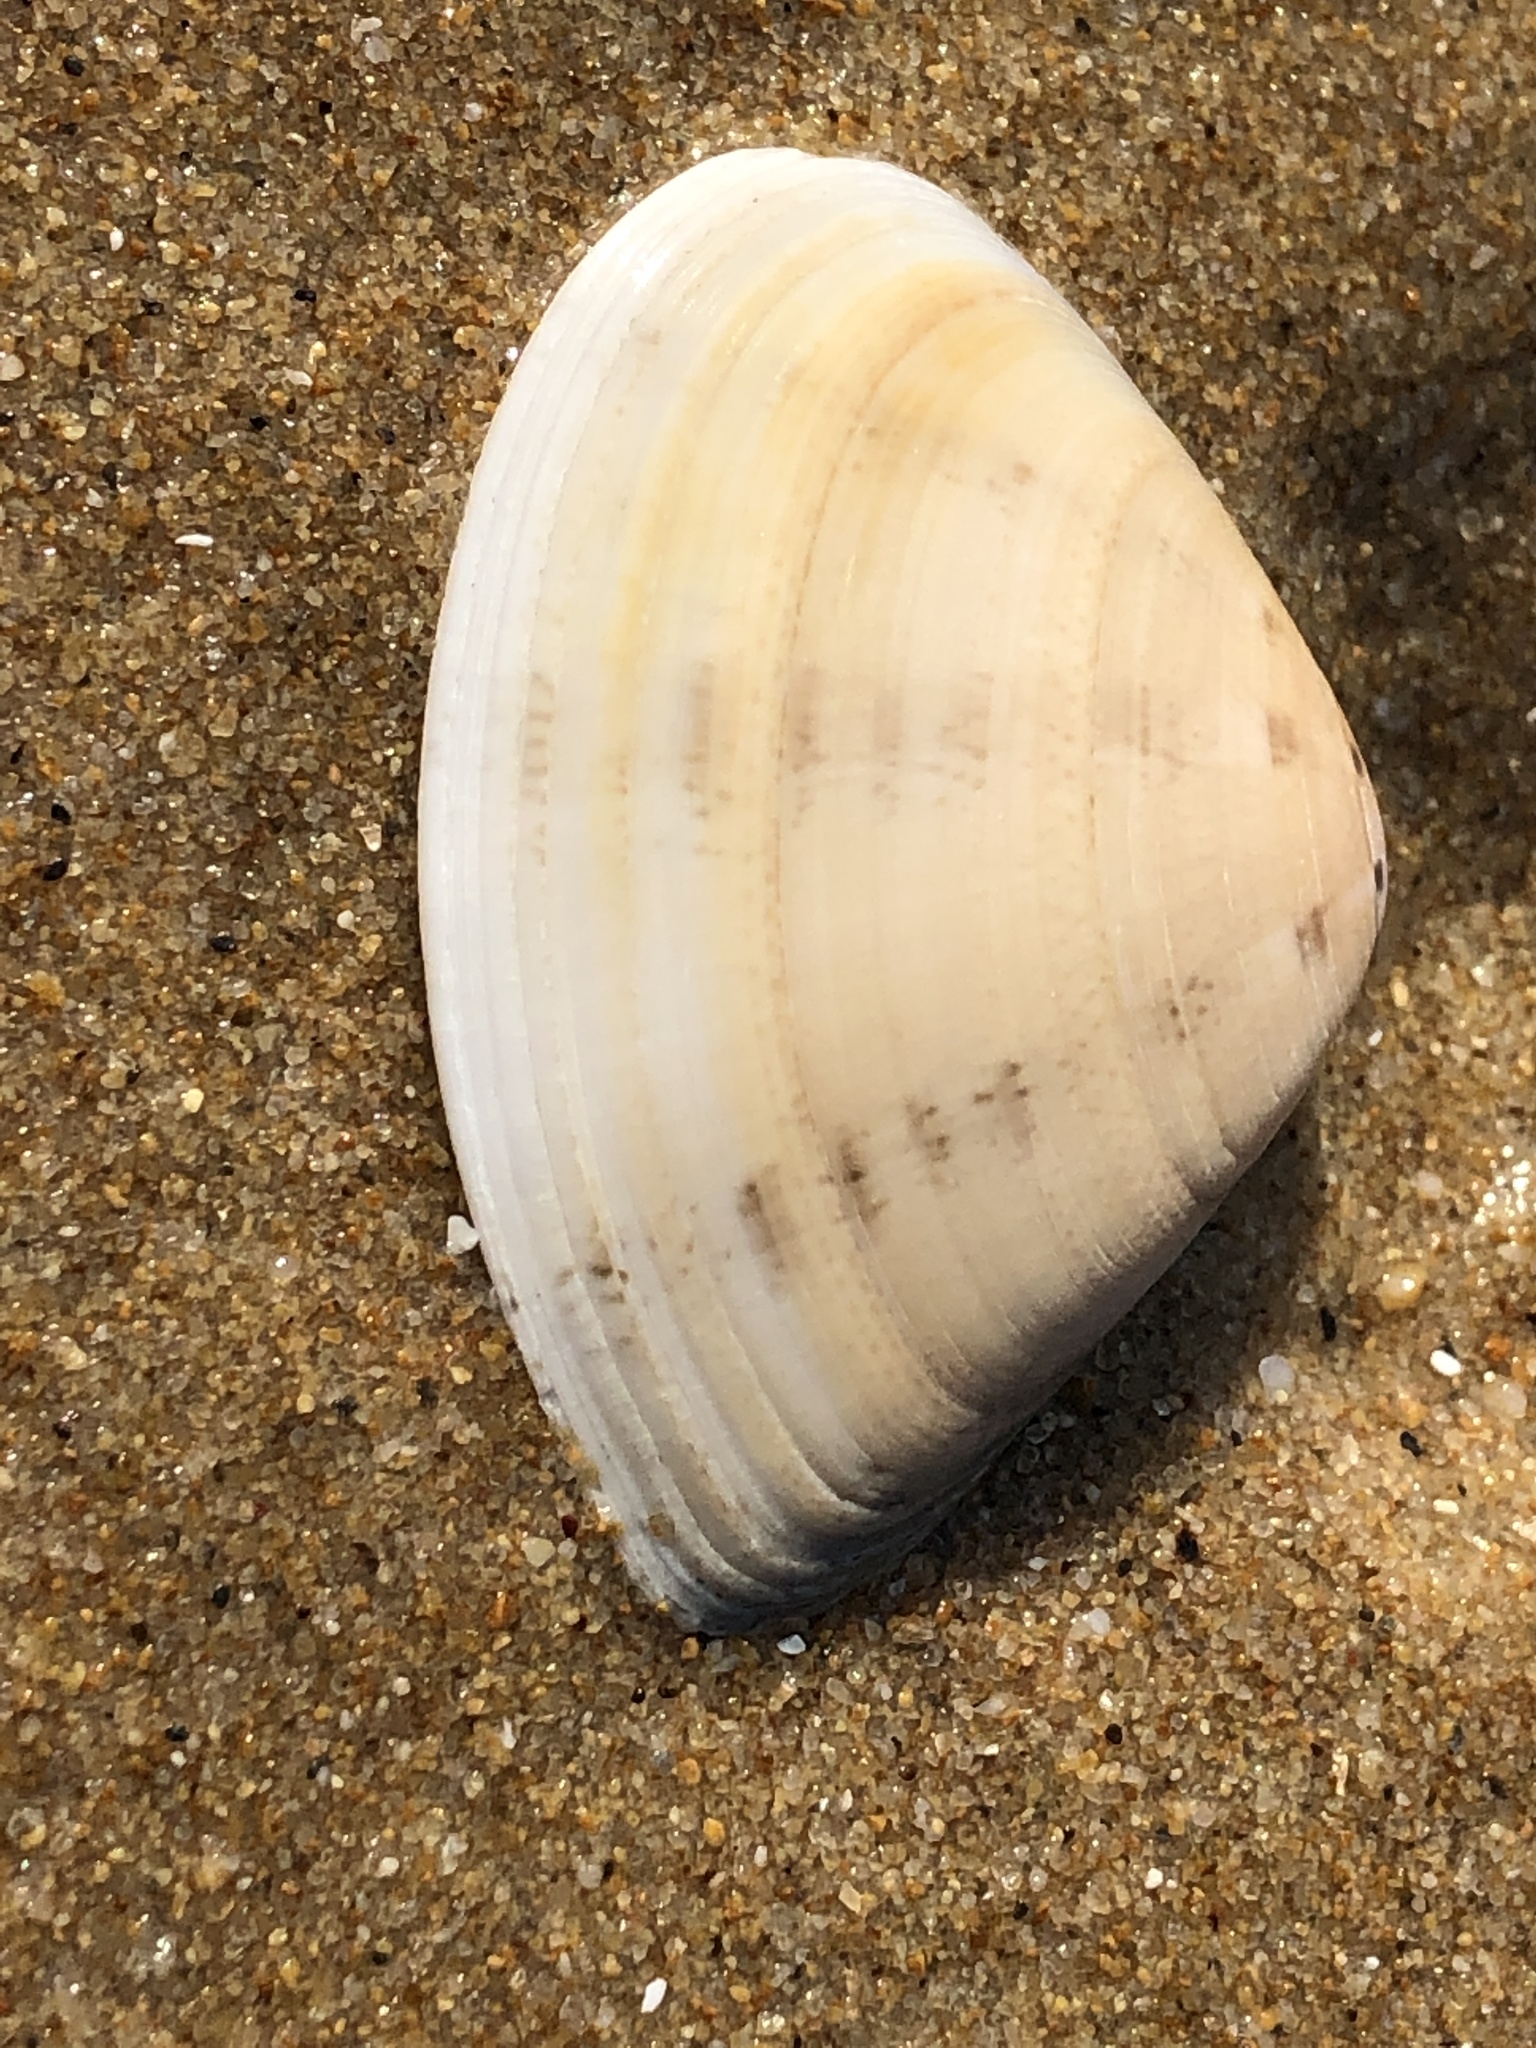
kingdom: Animalia
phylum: Mollusca
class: Bivalvia
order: Venerida
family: Veneridae
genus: Macridiscus
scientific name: Macridiscus multifarius
